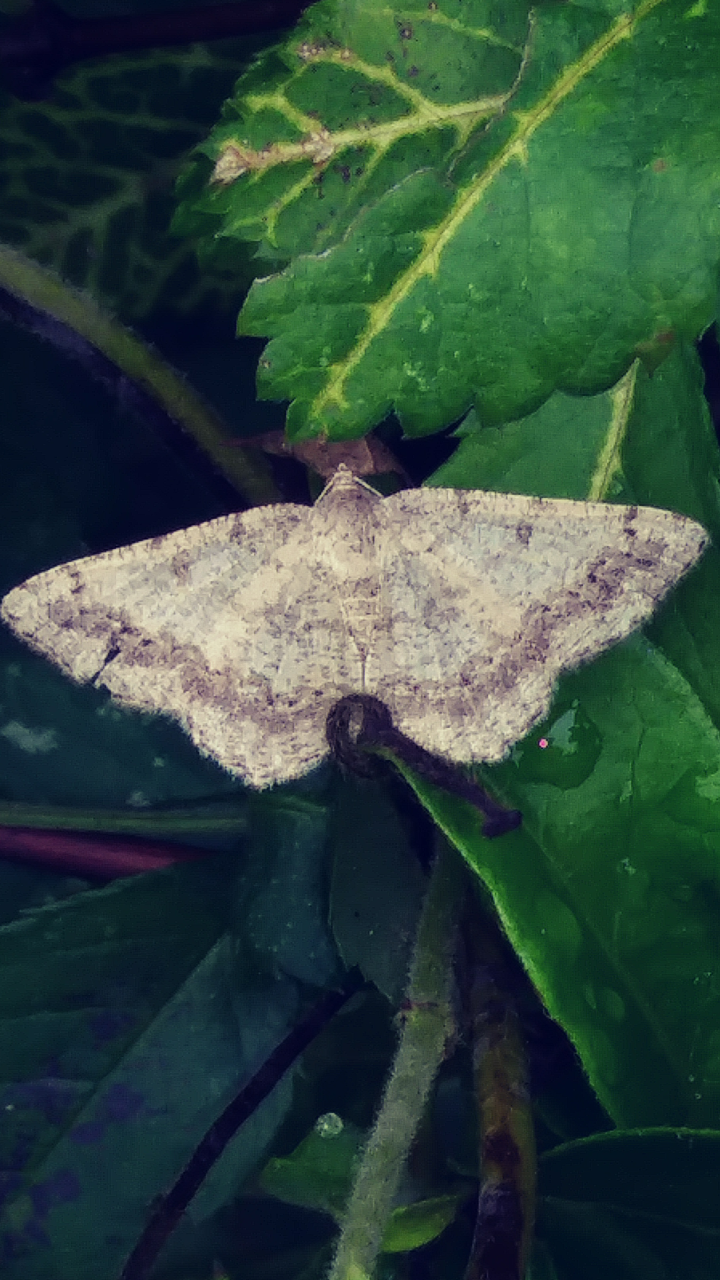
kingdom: Animalia
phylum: Arthropoda
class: Insecta
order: Lepidoptera
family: Geometridae
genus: Digrammia
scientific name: Digrammia ocellinata
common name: Faint-spotted angle
